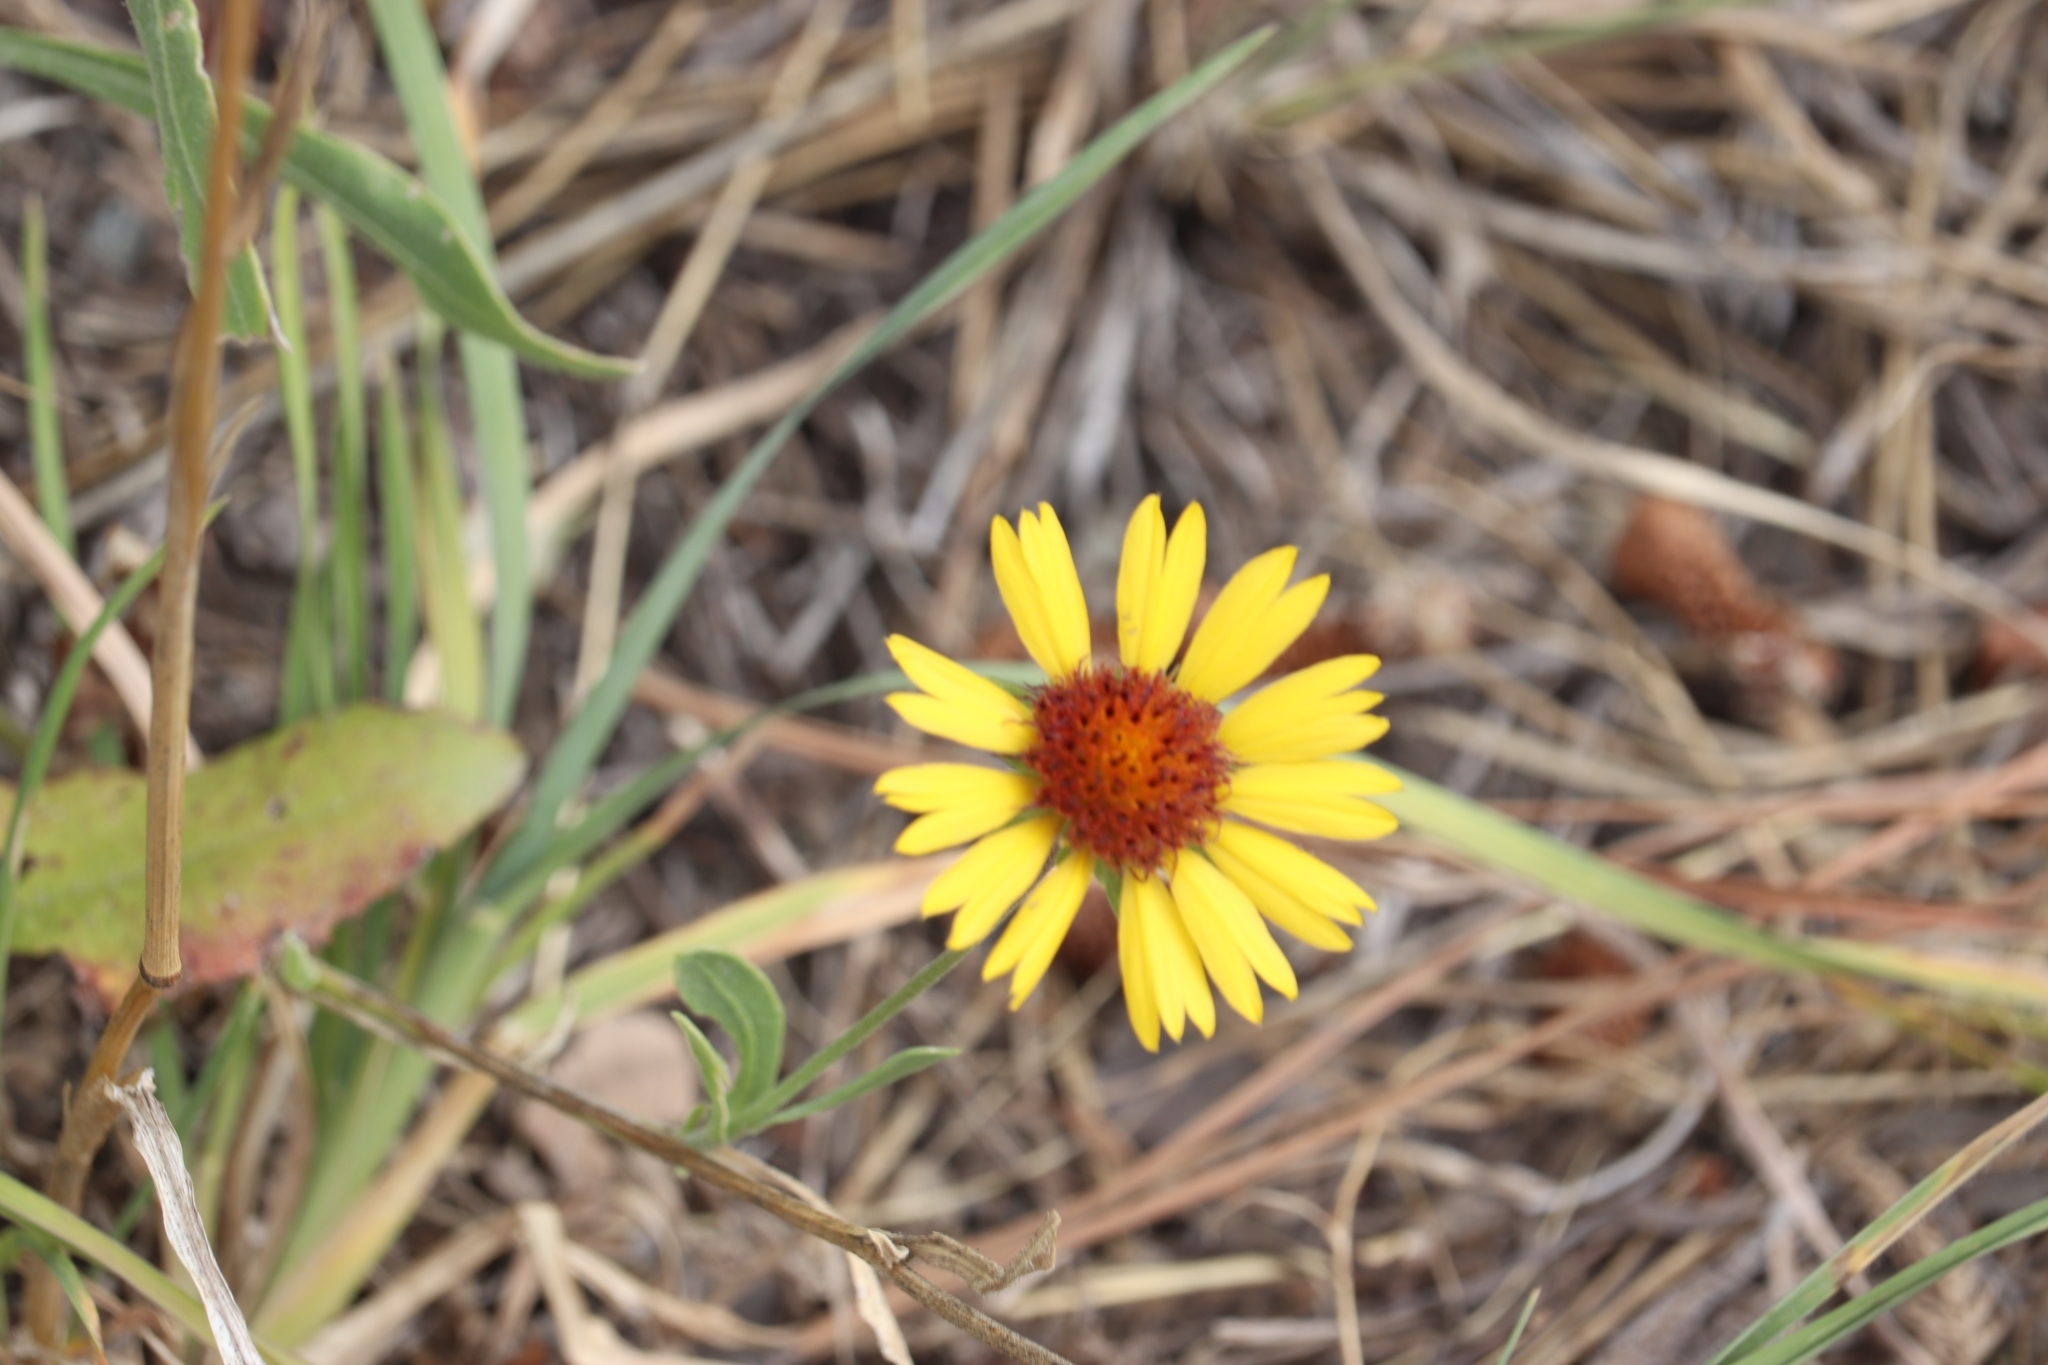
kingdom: Plantae
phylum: Tracheophyta
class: Magnoliopsida
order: Asterales
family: Asteraceae
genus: Gaillardia
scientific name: Gaillardia aristata
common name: Blanket-flower
